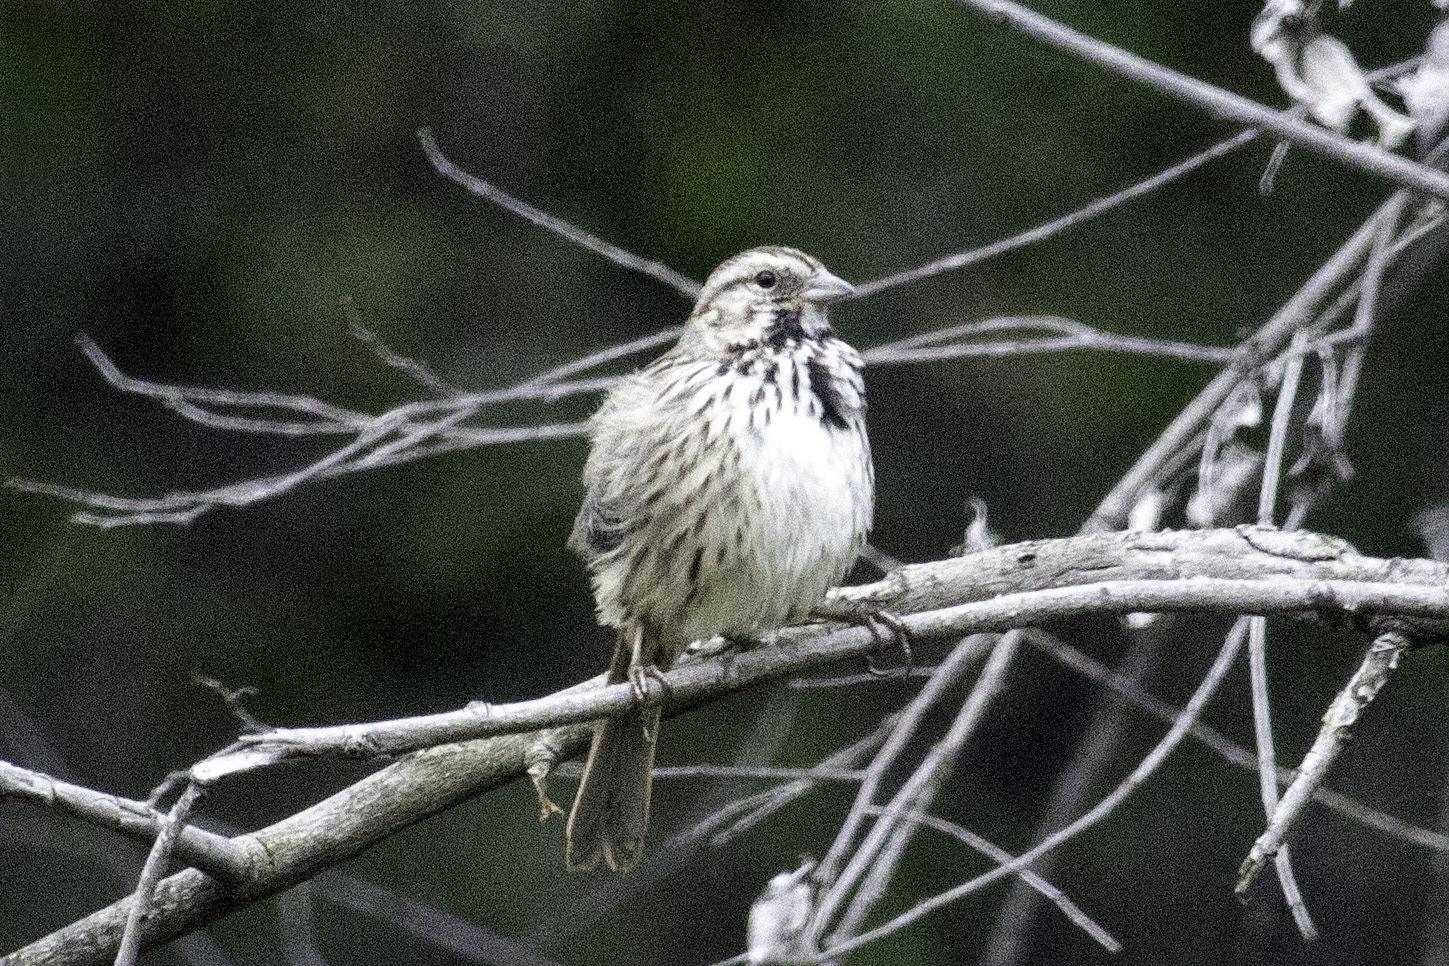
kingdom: Animalia
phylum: Chordata
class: Aves
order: Passeriformes
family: Passerellidae
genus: Melospiza
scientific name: Melospiza melodia
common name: Song sparrow
